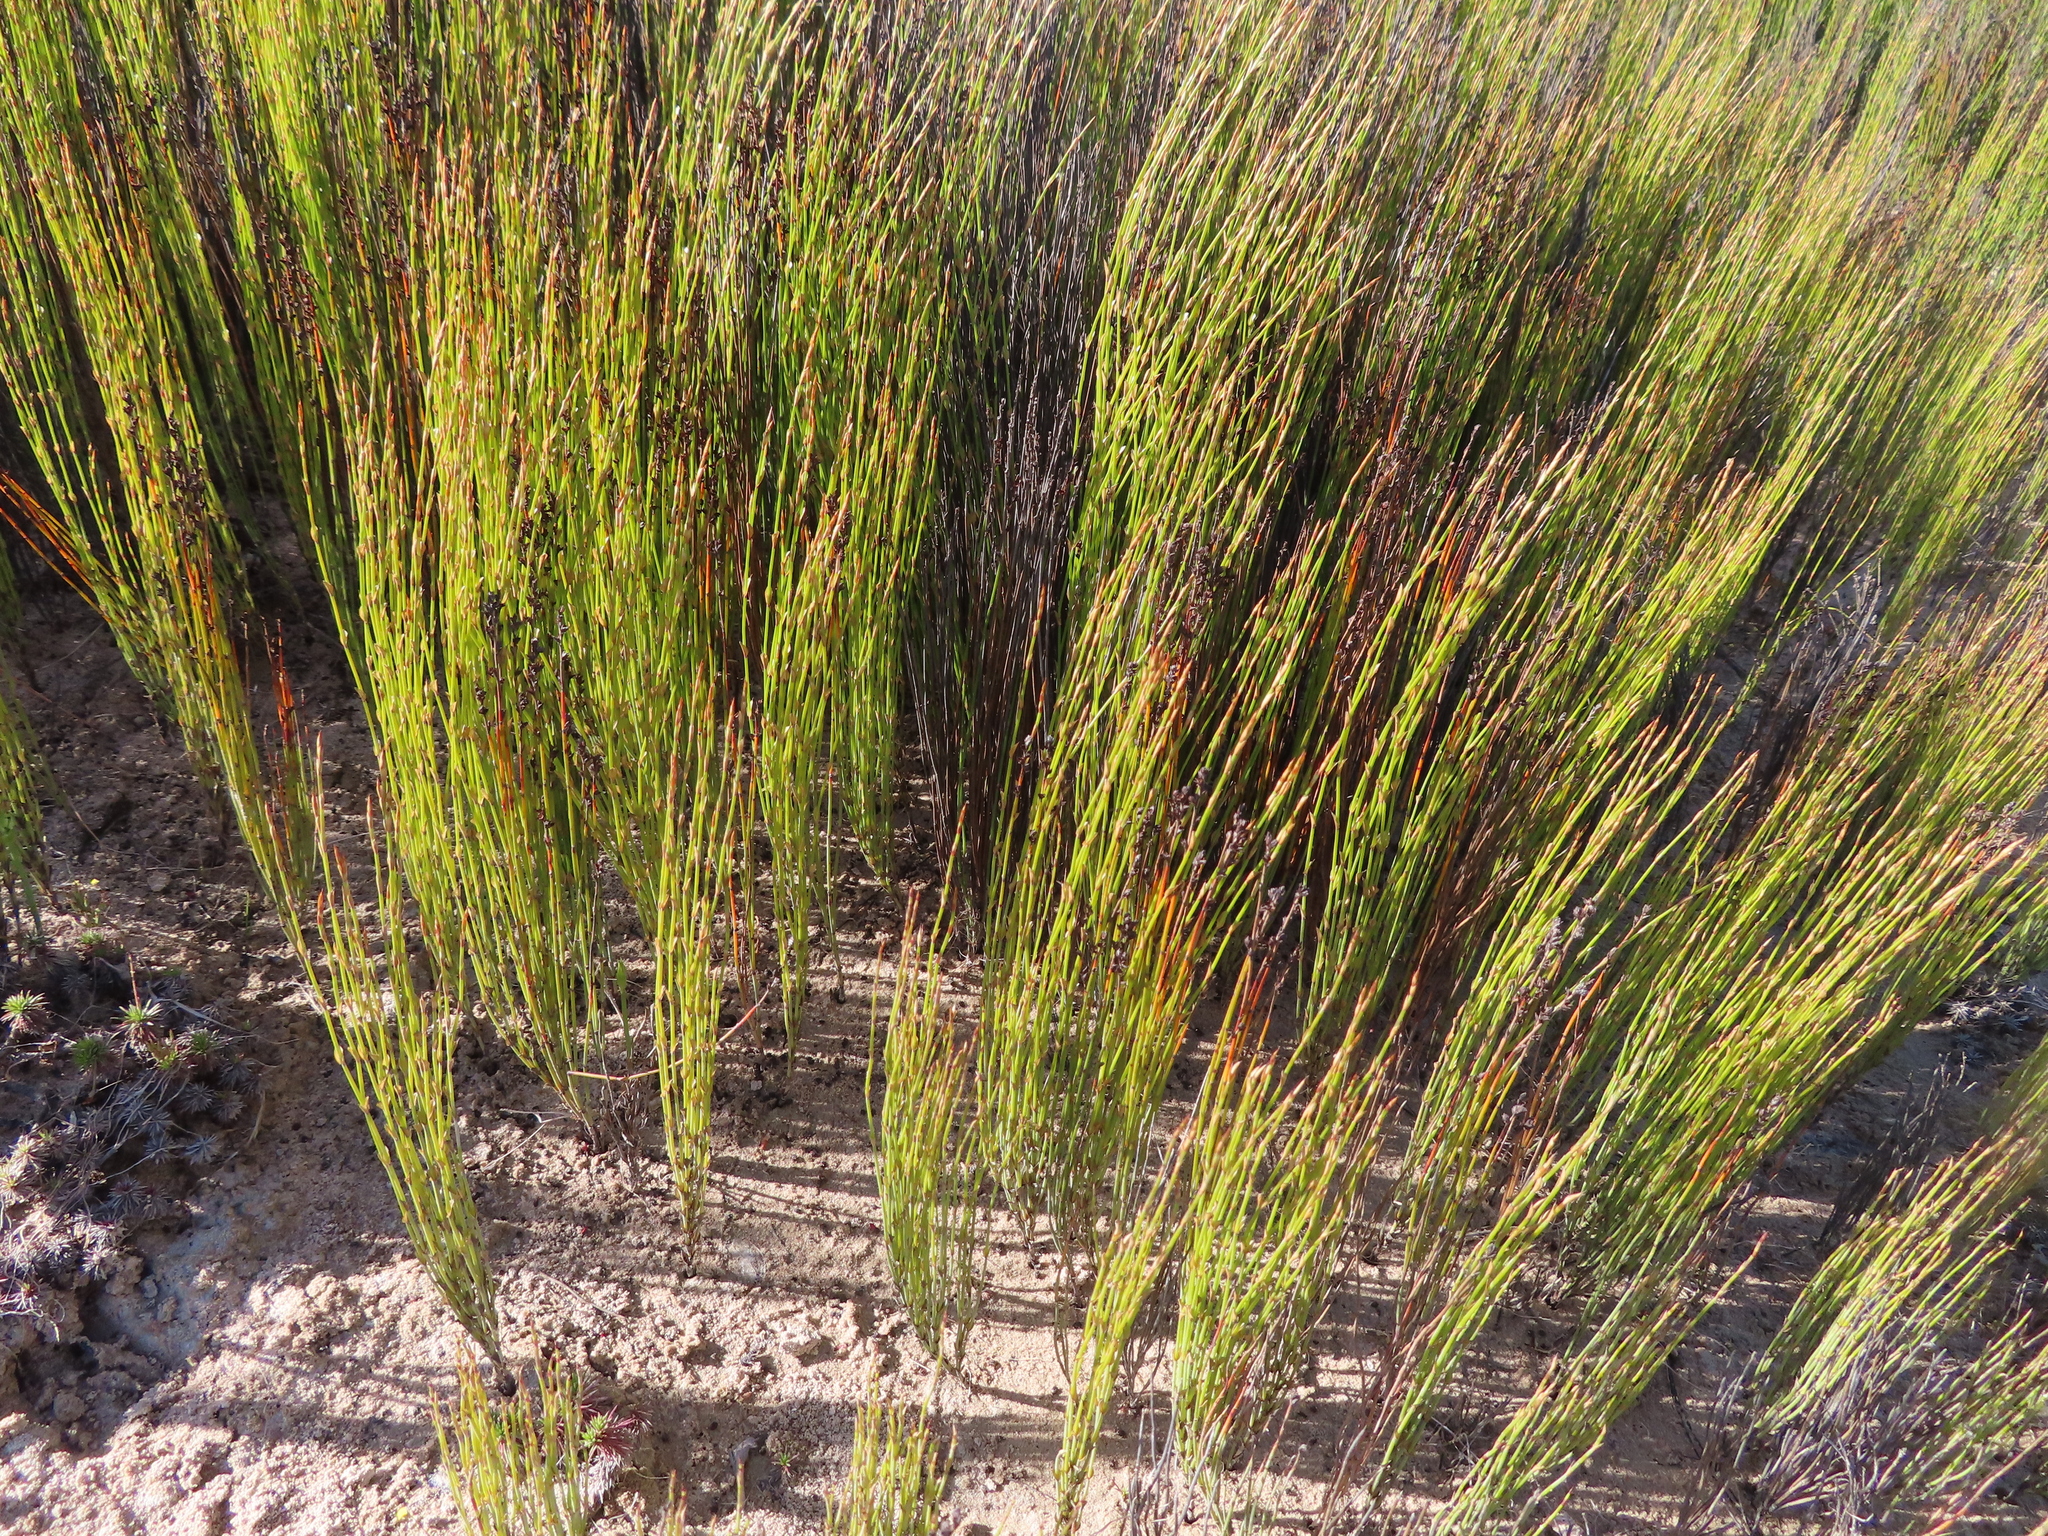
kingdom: Plantae
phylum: Tracheophyta
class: Liliopsida
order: Poales
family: Restionaceae
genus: Elegia
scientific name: Elegia microcarpa
